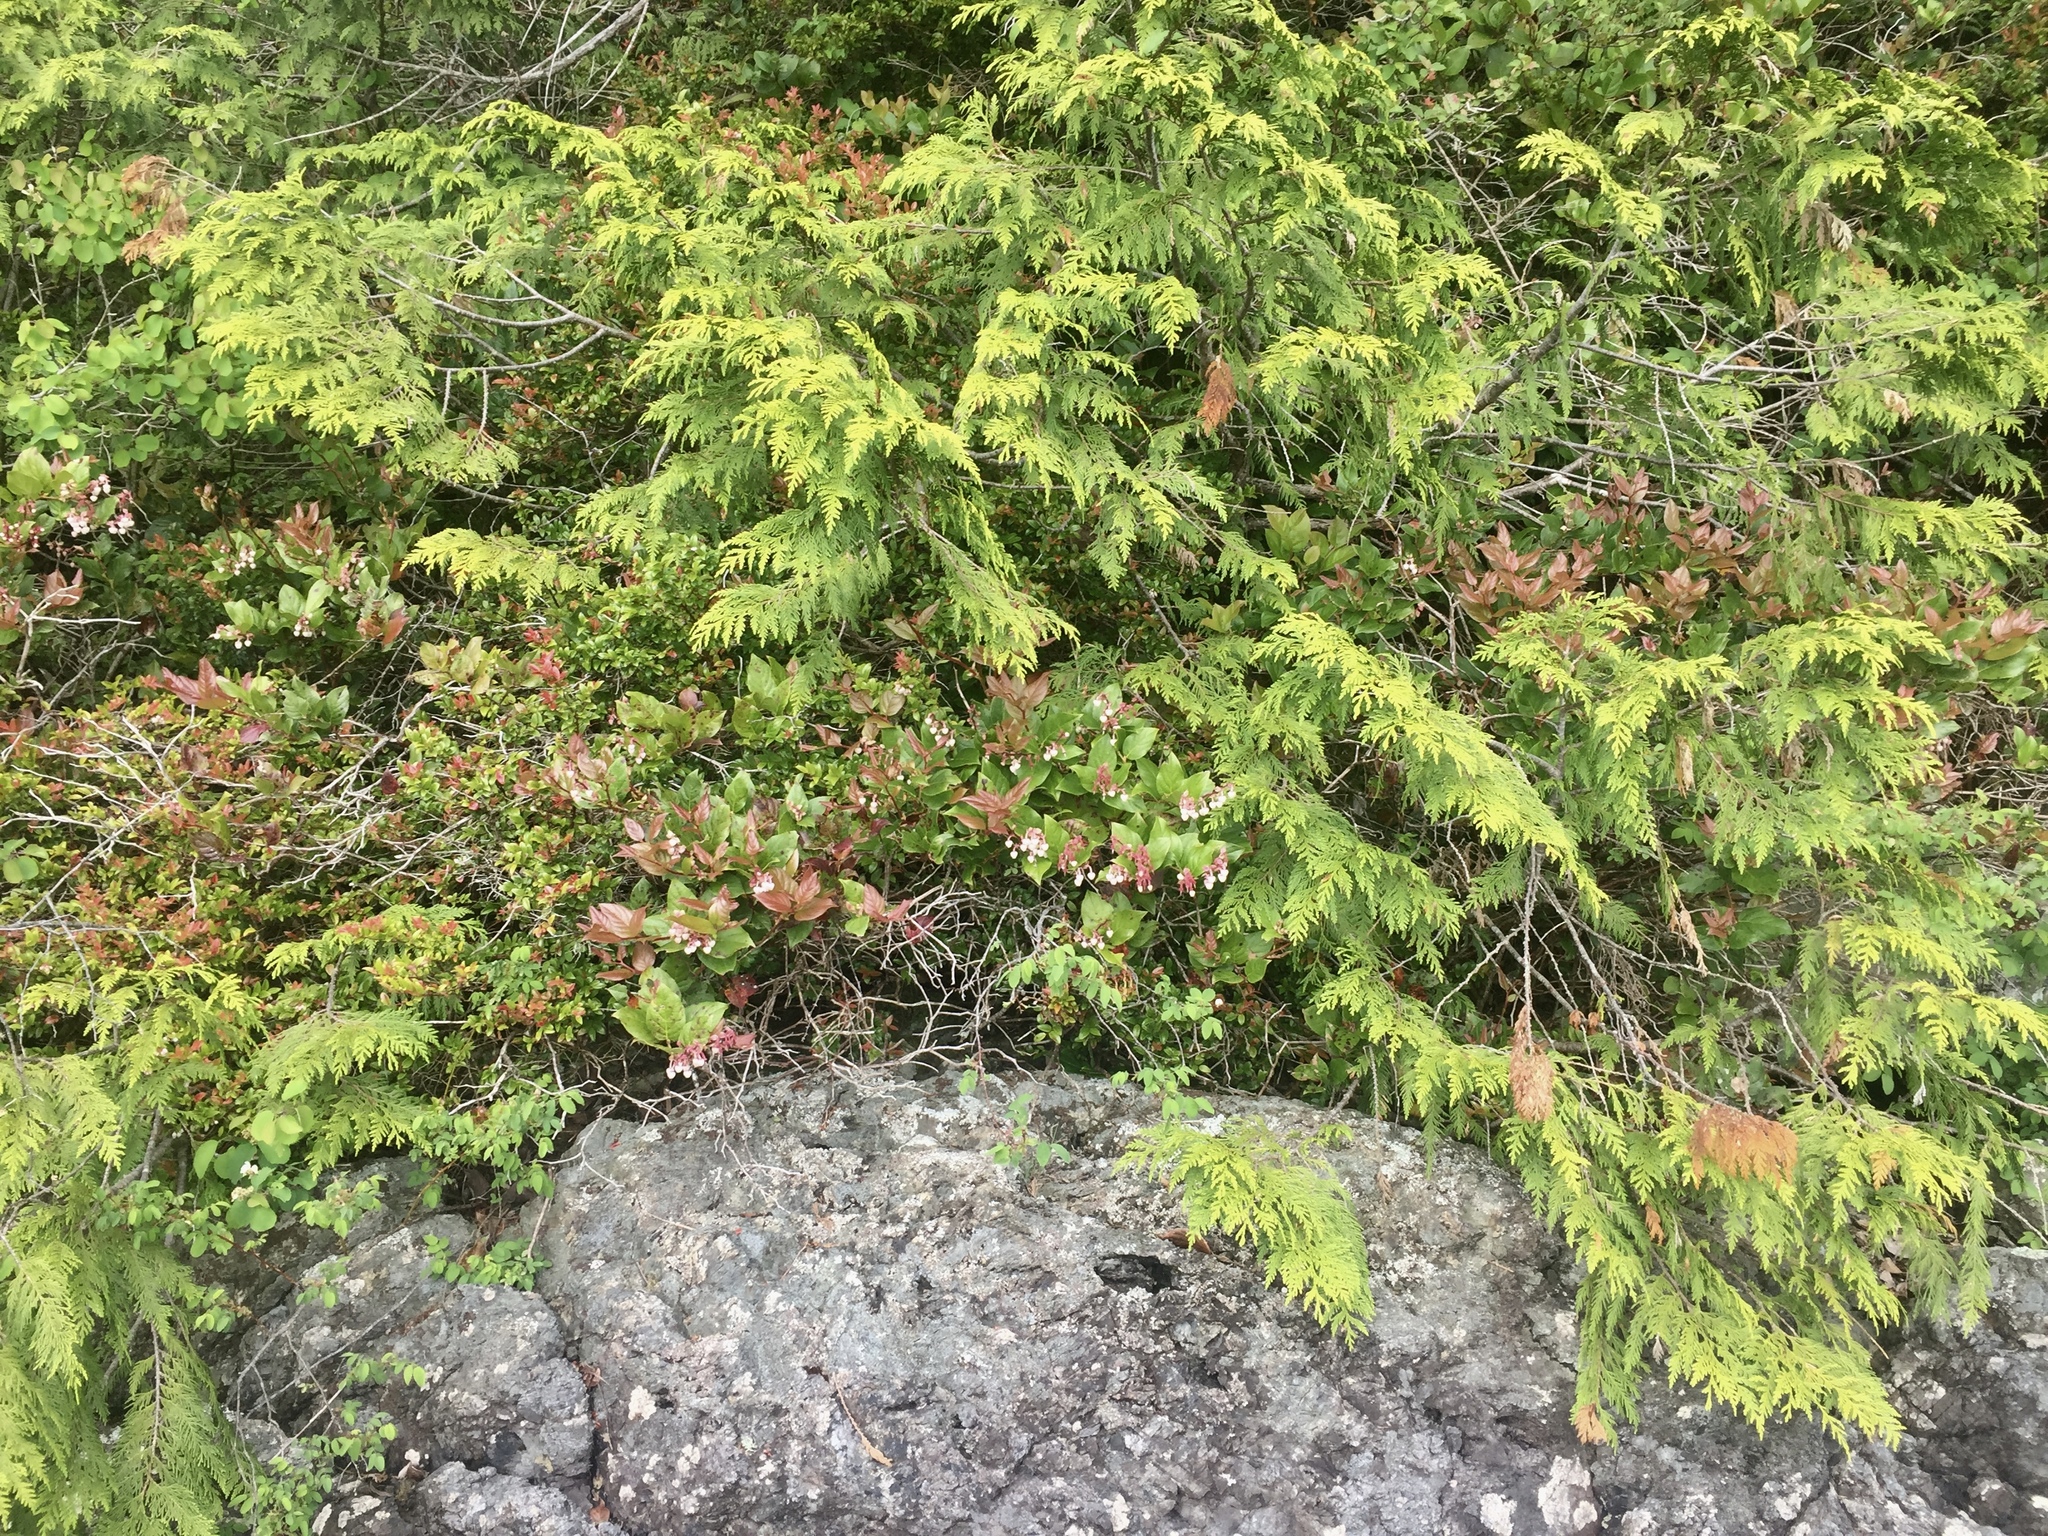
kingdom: Plantae
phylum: Tracheophyta
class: Pinopsida
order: Pinales
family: Cupressaceae
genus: Thuja
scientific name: Thuja plicata
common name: Western red-cedar
